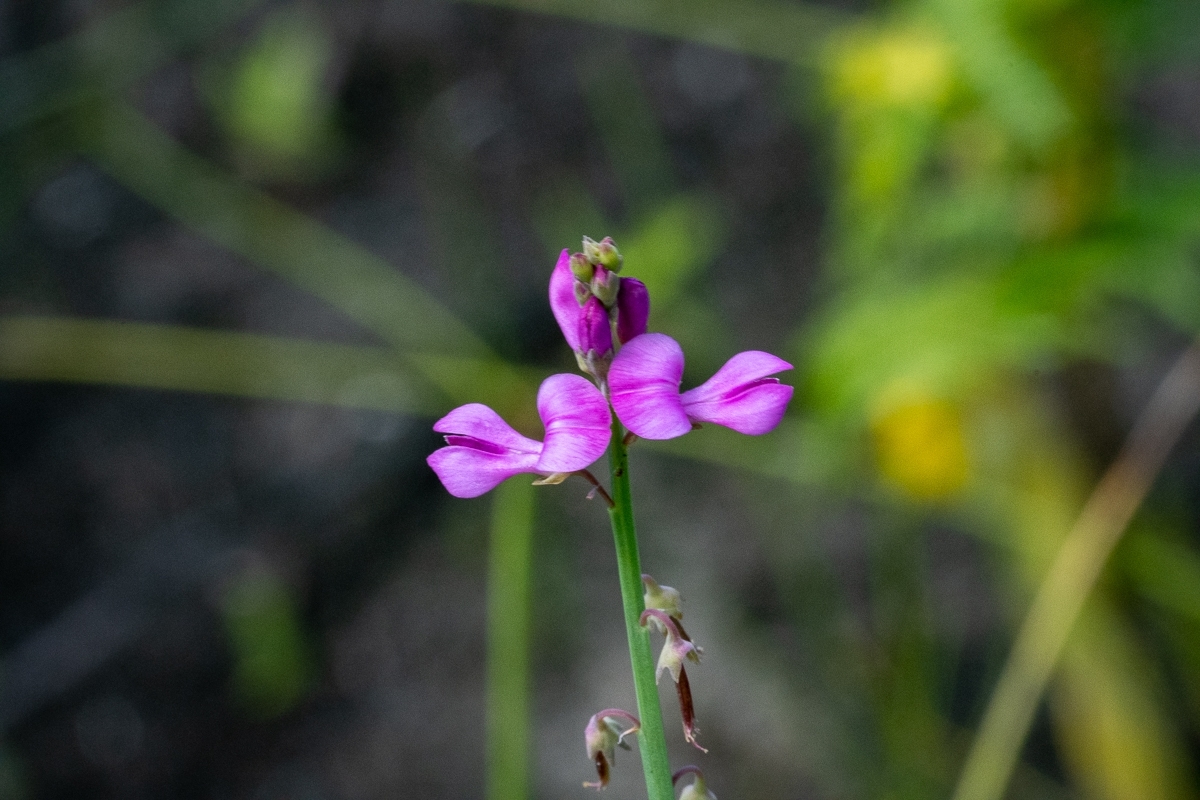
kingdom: Plantae
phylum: Tracheophyta
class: Magnoliopsida
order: Fabales
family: Fabaceae
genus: Indigofera
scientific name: Indigofera ionii
